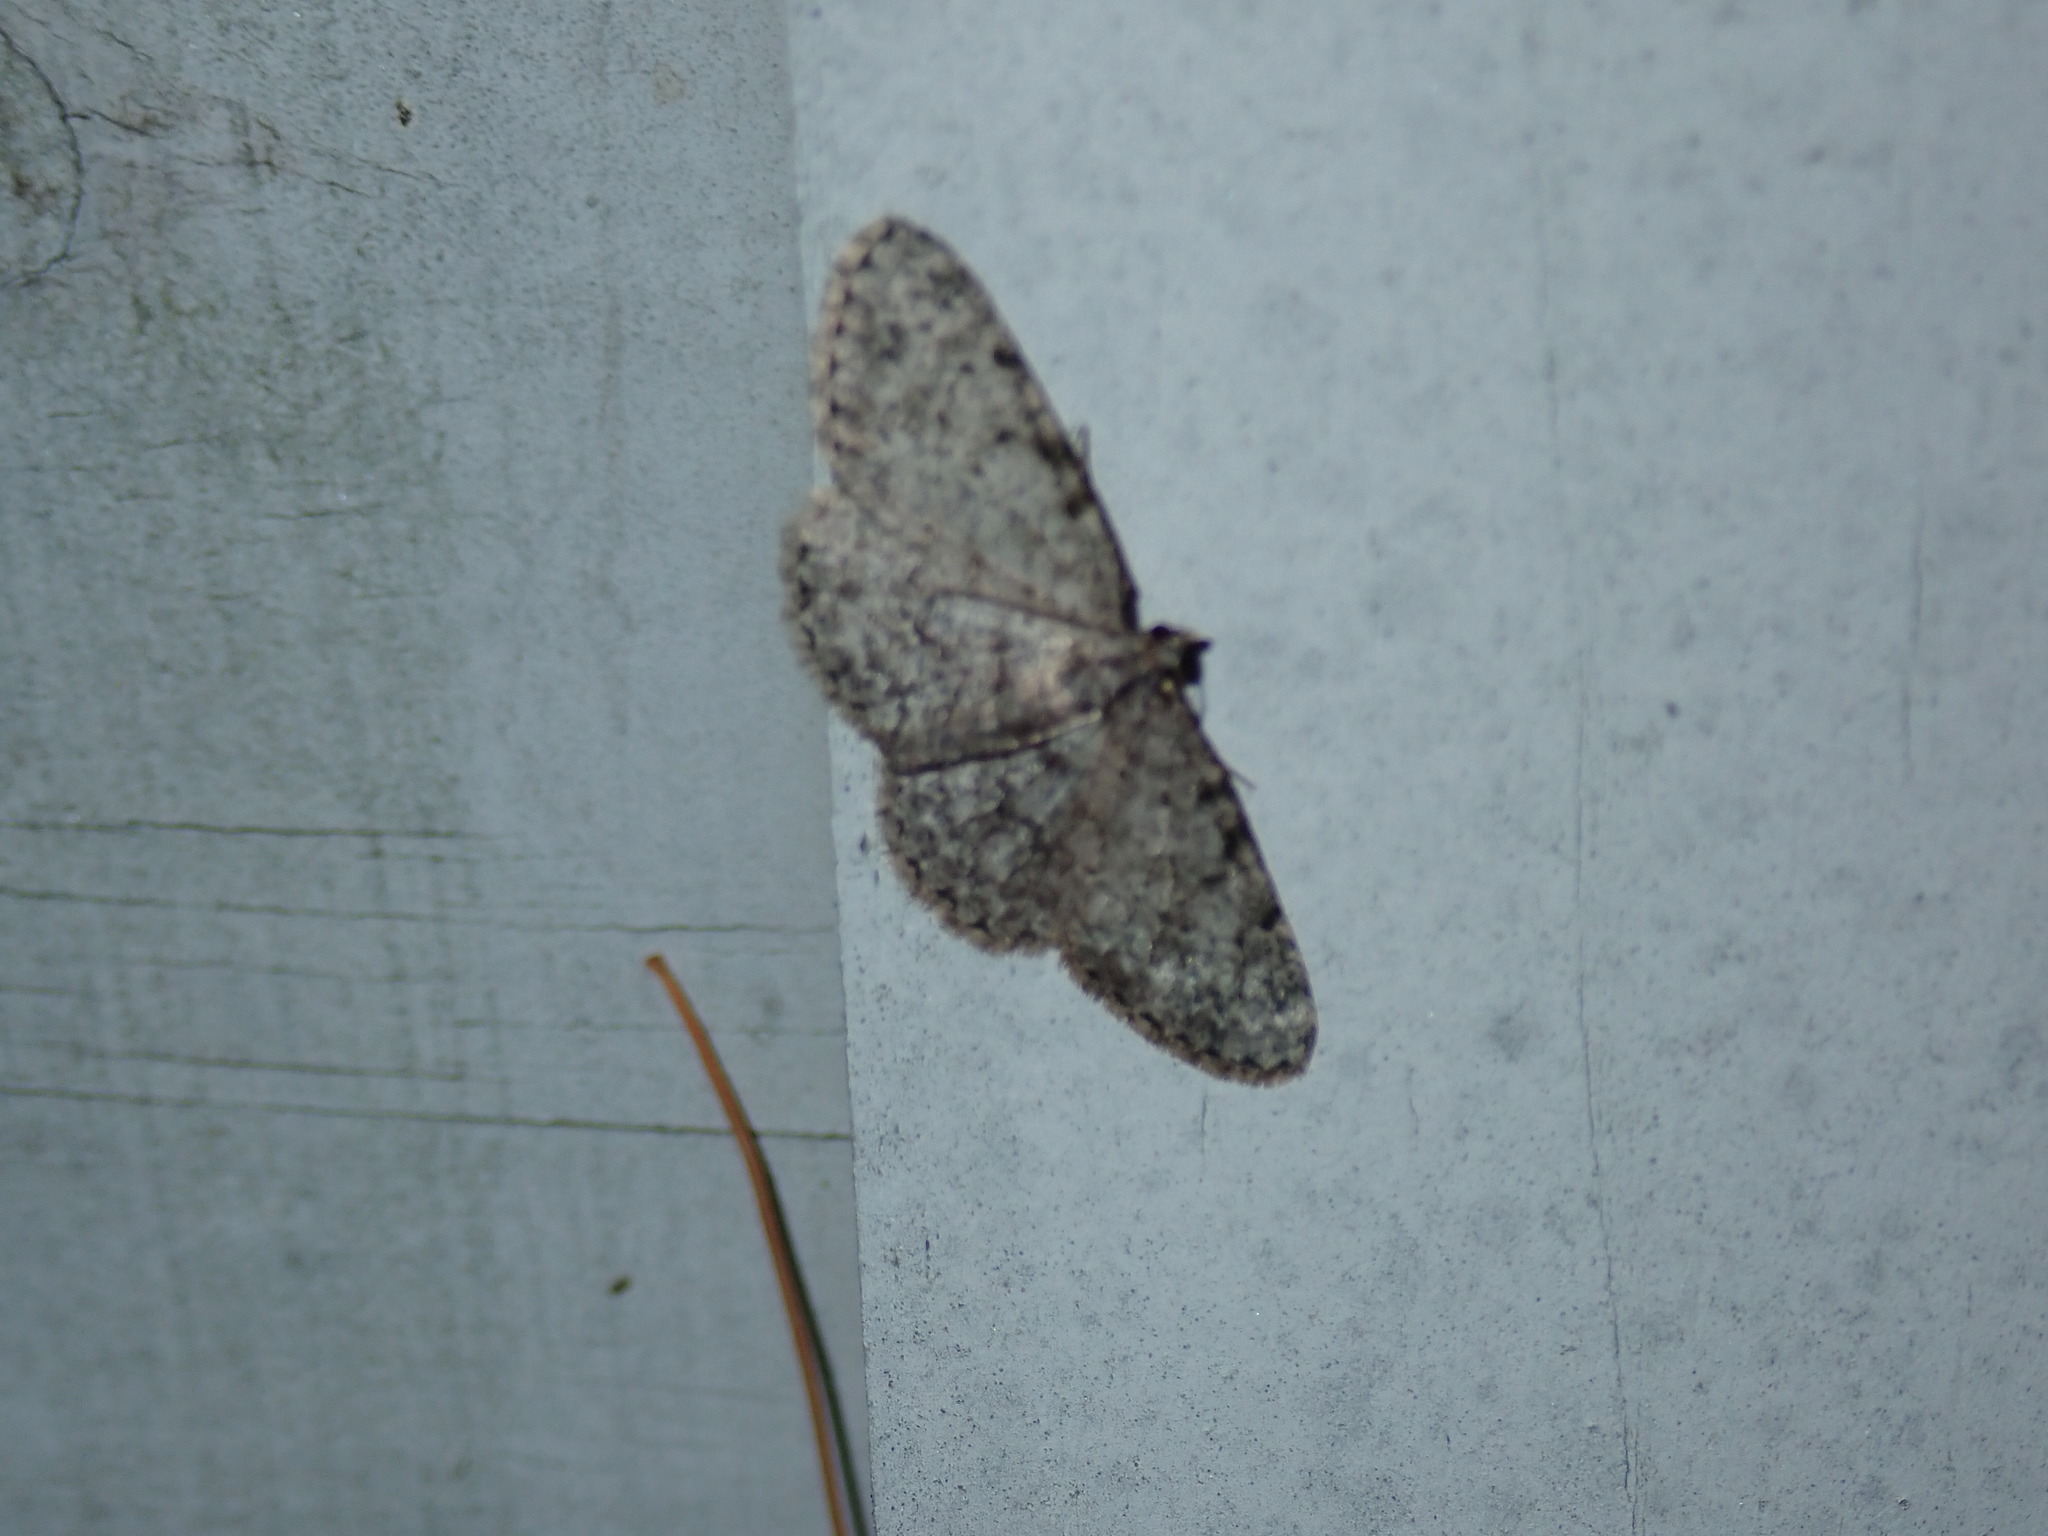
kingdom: Animalia
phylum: Arthropoda
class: Insecta
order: Lepidoptera
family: Geometridae
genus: Protoboarmia
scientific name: Protoboarmia porcelaria
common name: Porcelain gray
